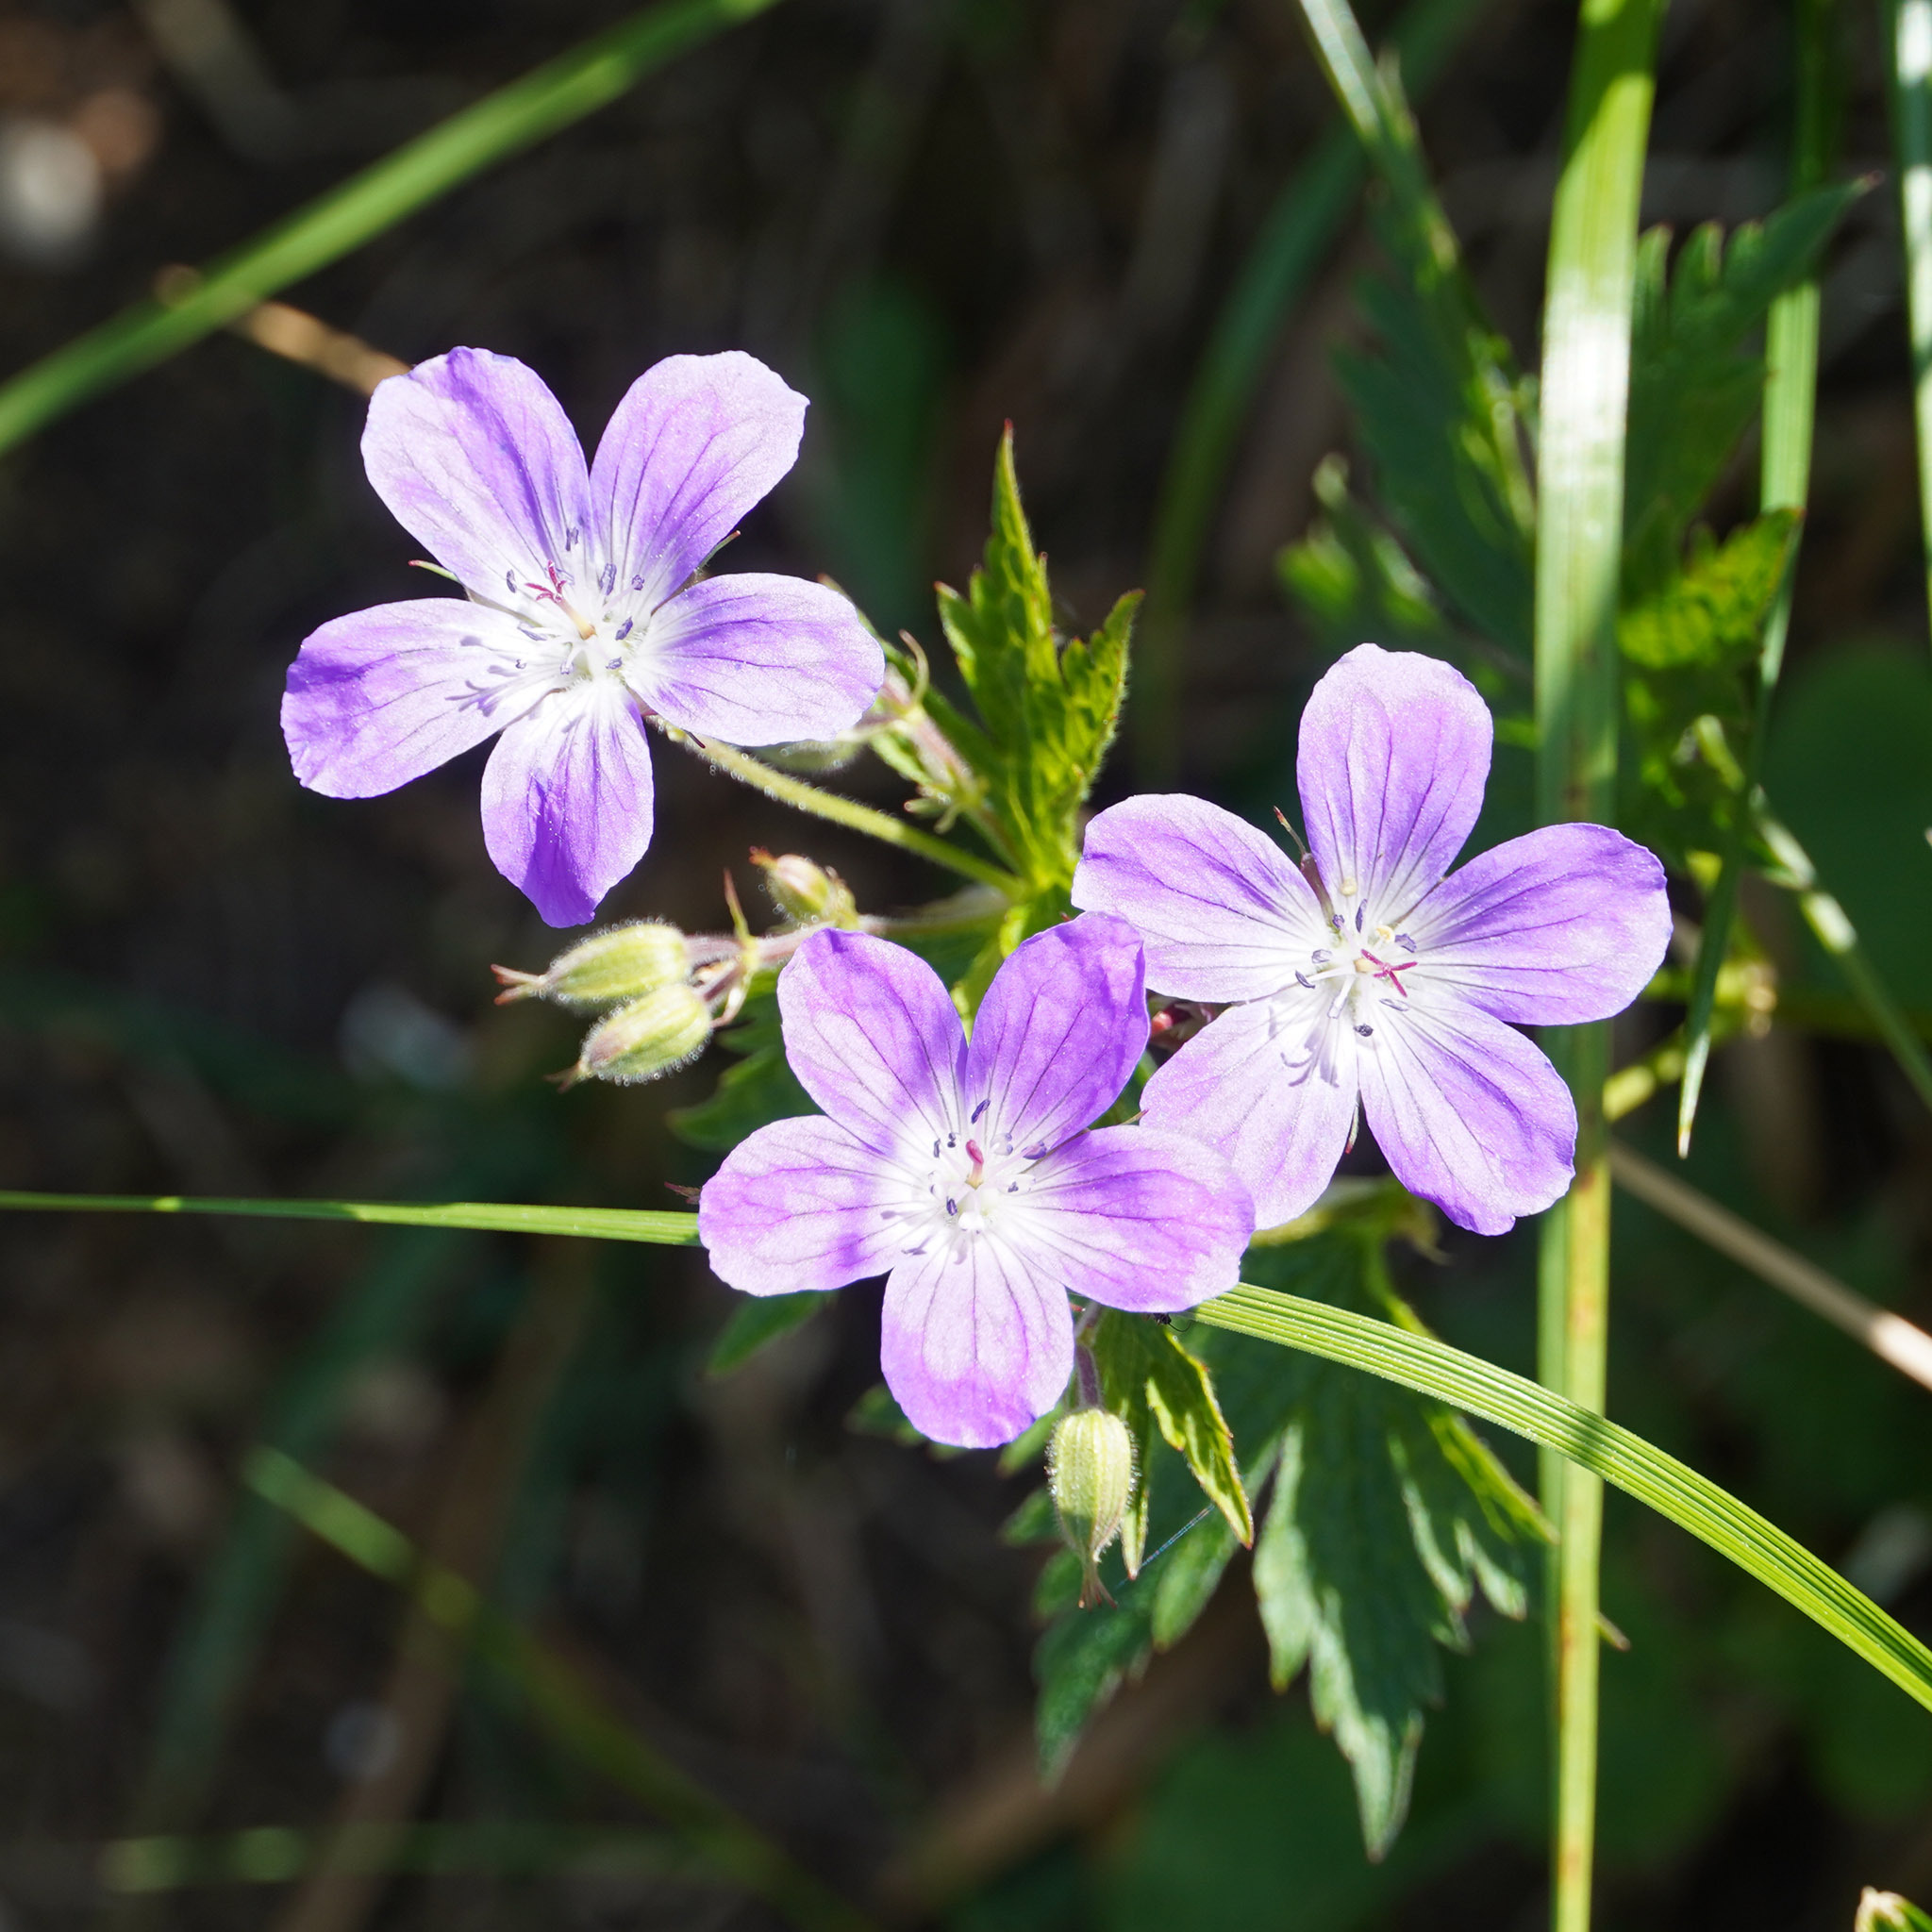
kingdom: Plantae
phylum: Tracheophyta
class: Magnoliopsida
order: Geraniales
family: Geraniaceae
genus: Geranium
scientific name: Geranium sylvaticum
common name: Wood crane's-bill
